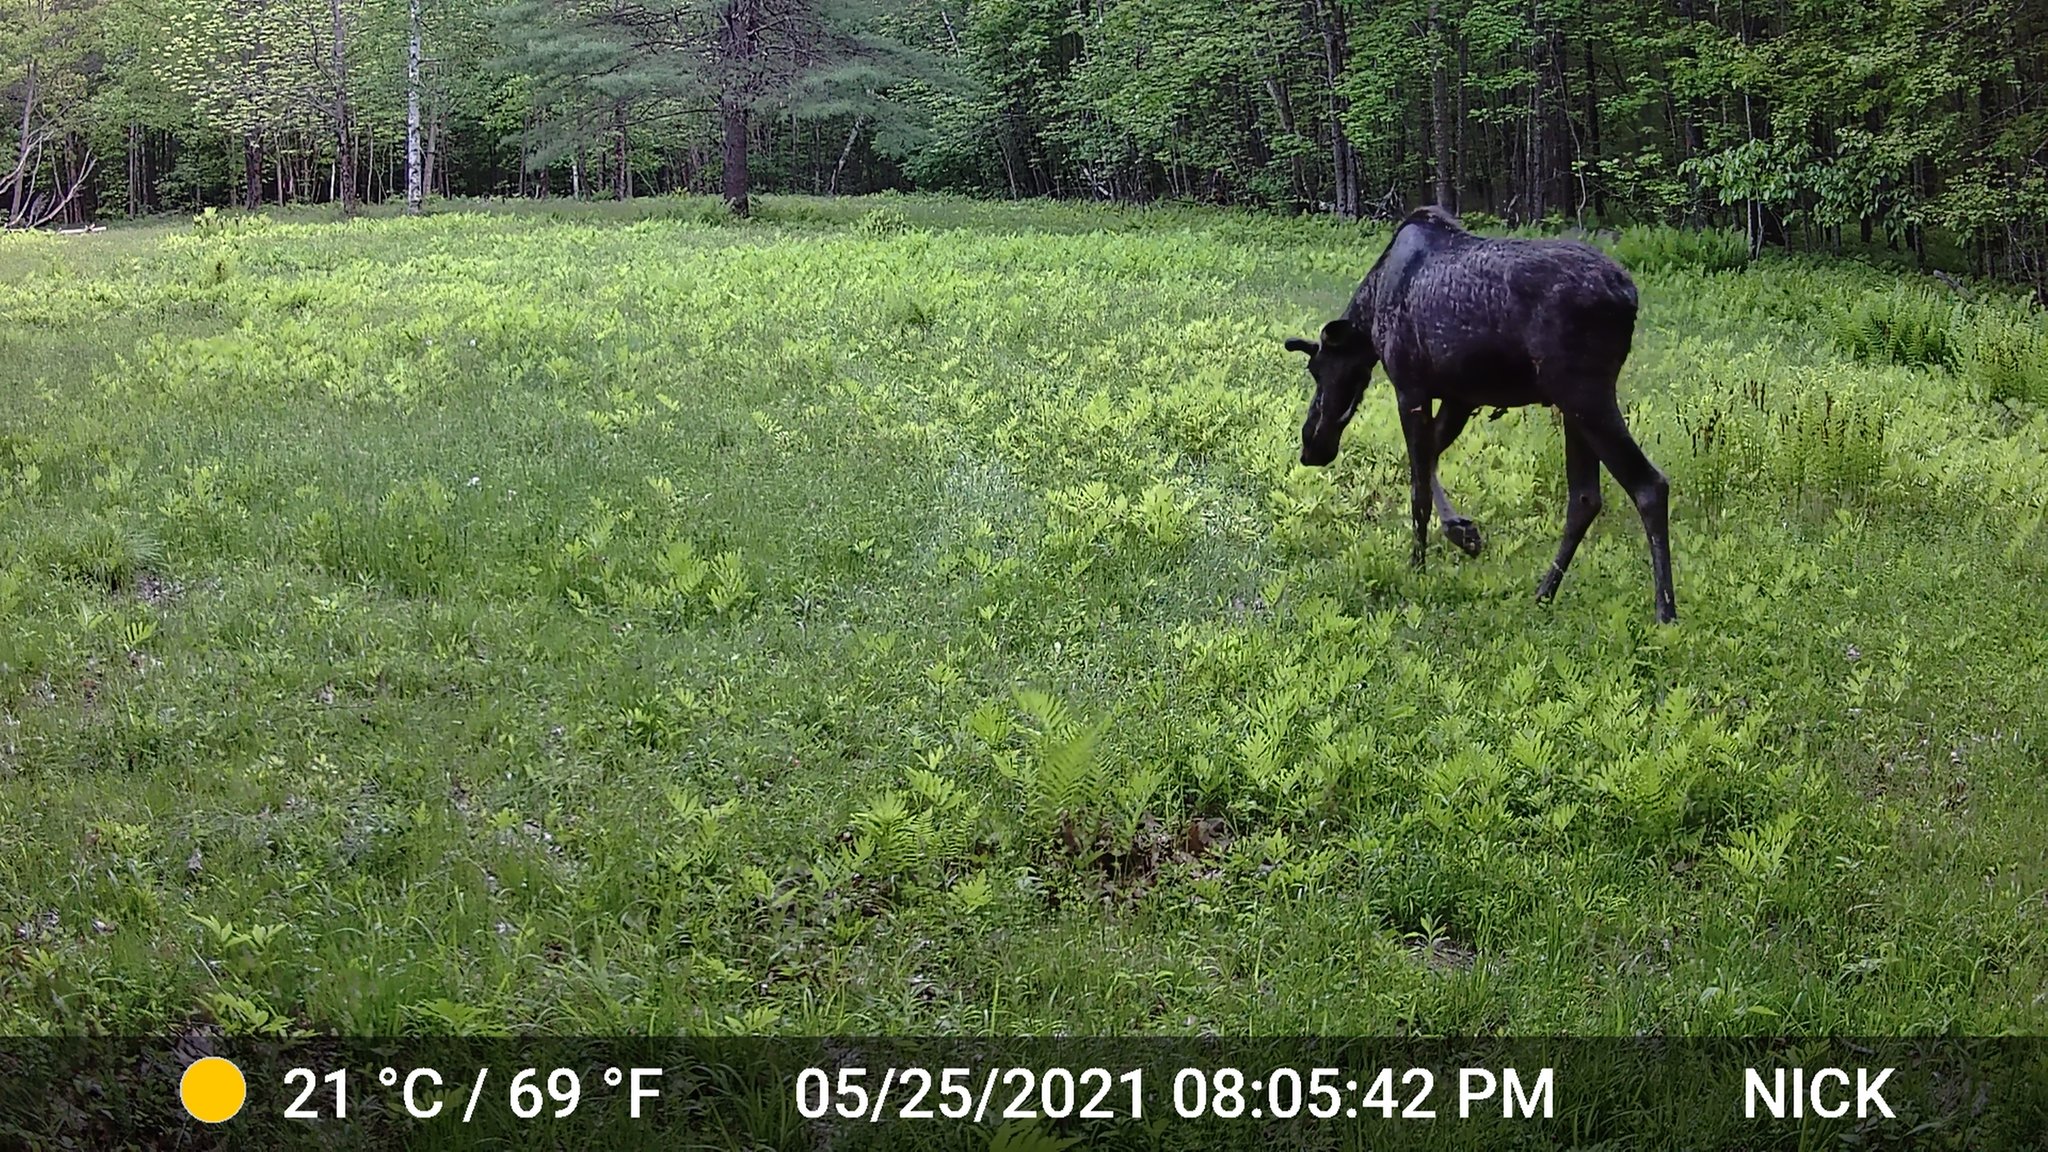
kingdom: Animalia
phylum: Chordata
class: Mammalia
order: Artiodactyla
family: Cervidae
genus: Alces
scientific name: Alces alces
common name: Moose
